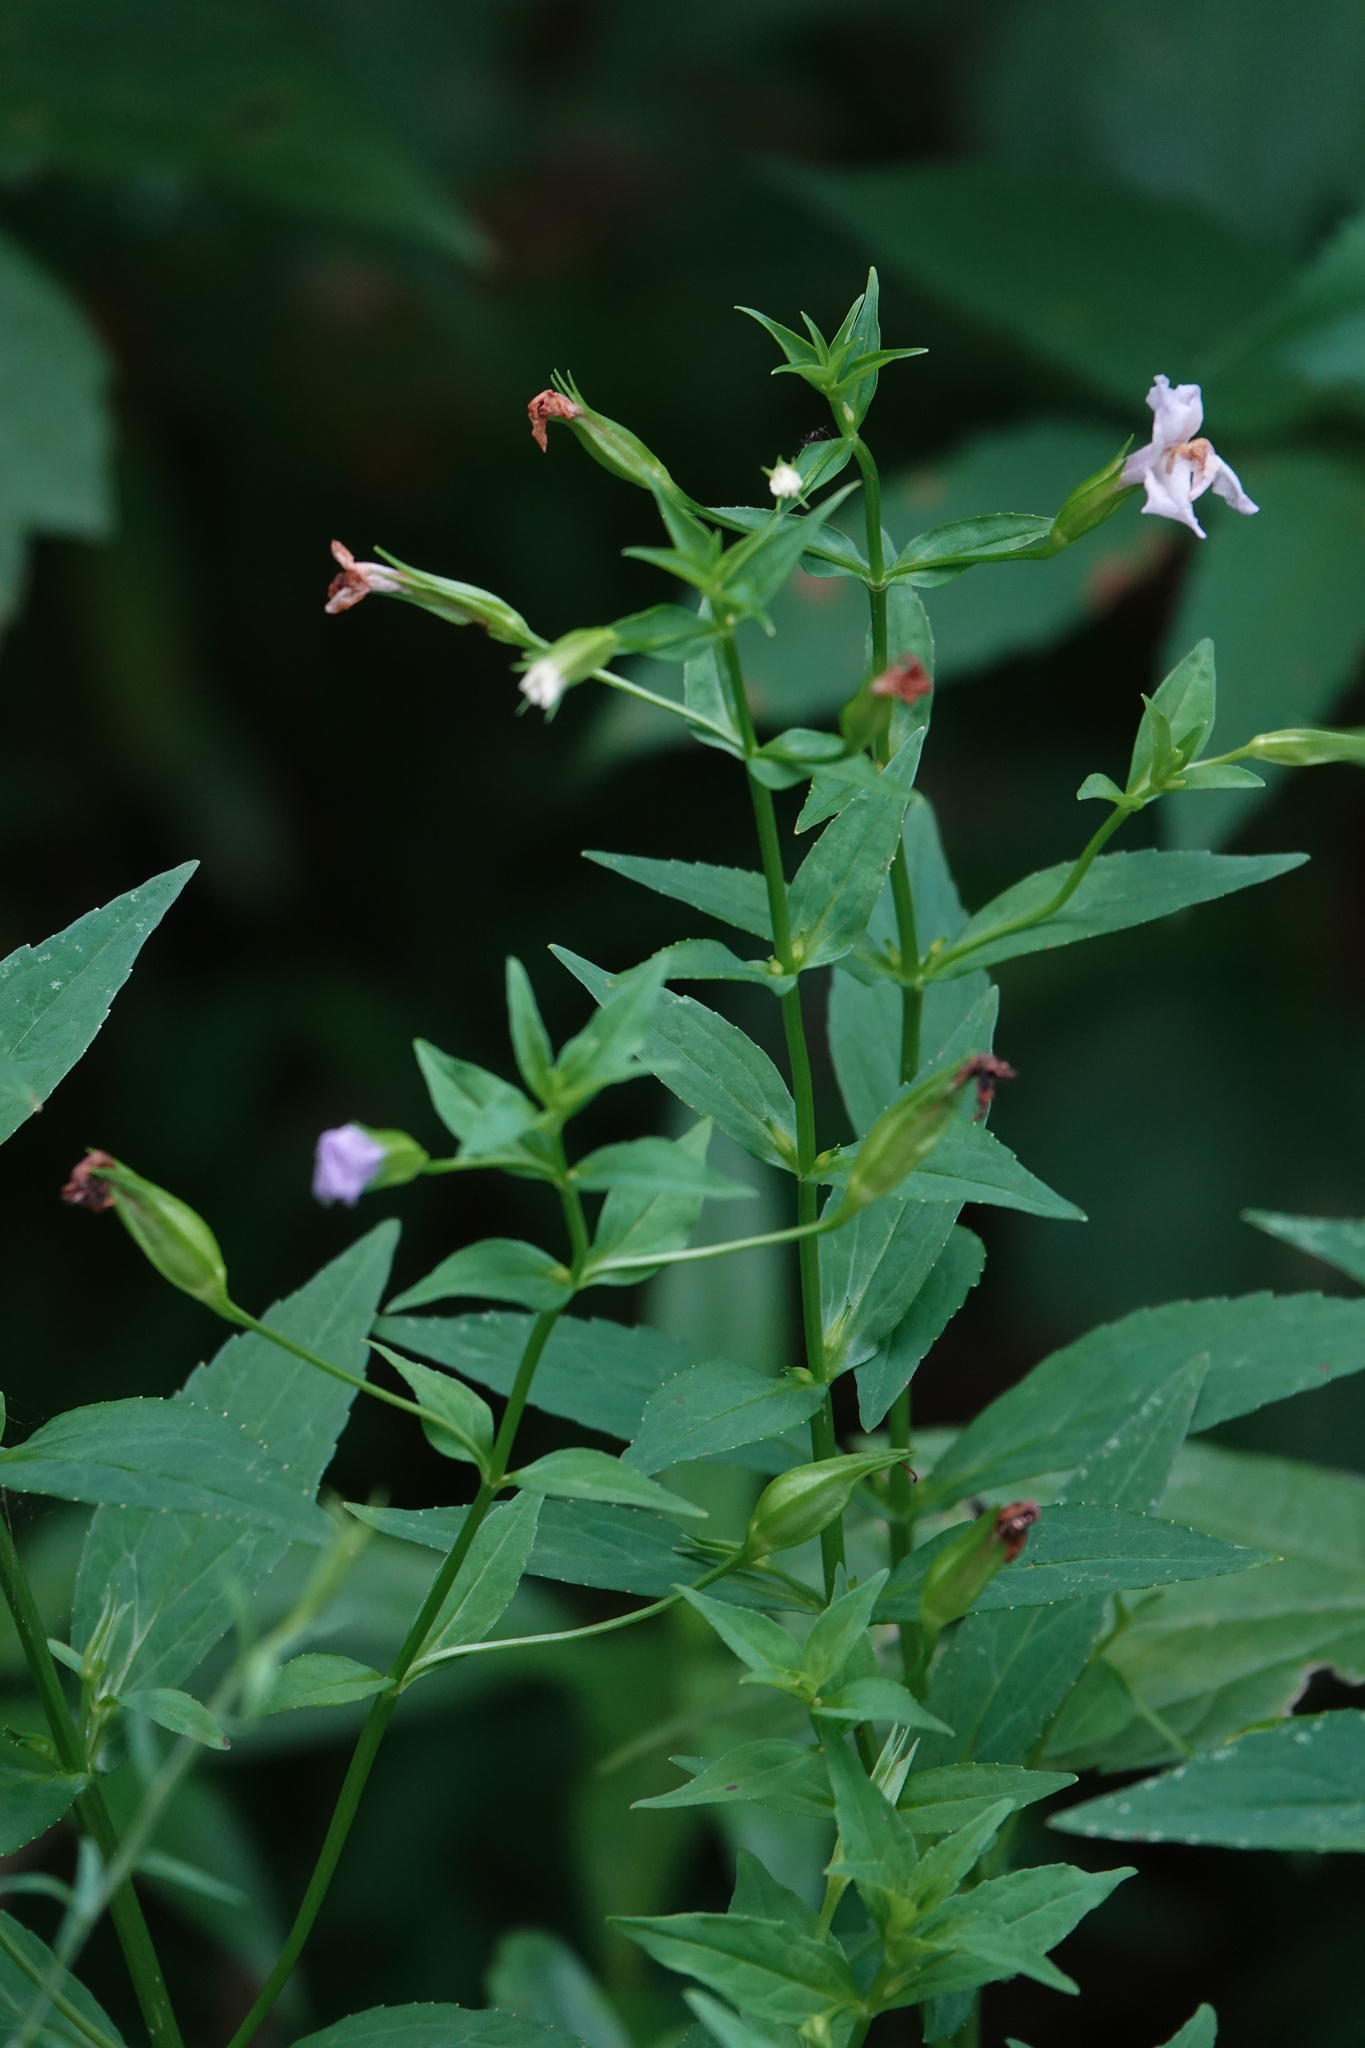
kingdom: Plantae
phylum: Tracheophyta
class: Magnoliopsida
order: Lamiales
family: Phrymaceae
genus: Mimulus
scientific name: Mimulus ringens
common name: Allegheny monkeyflower
